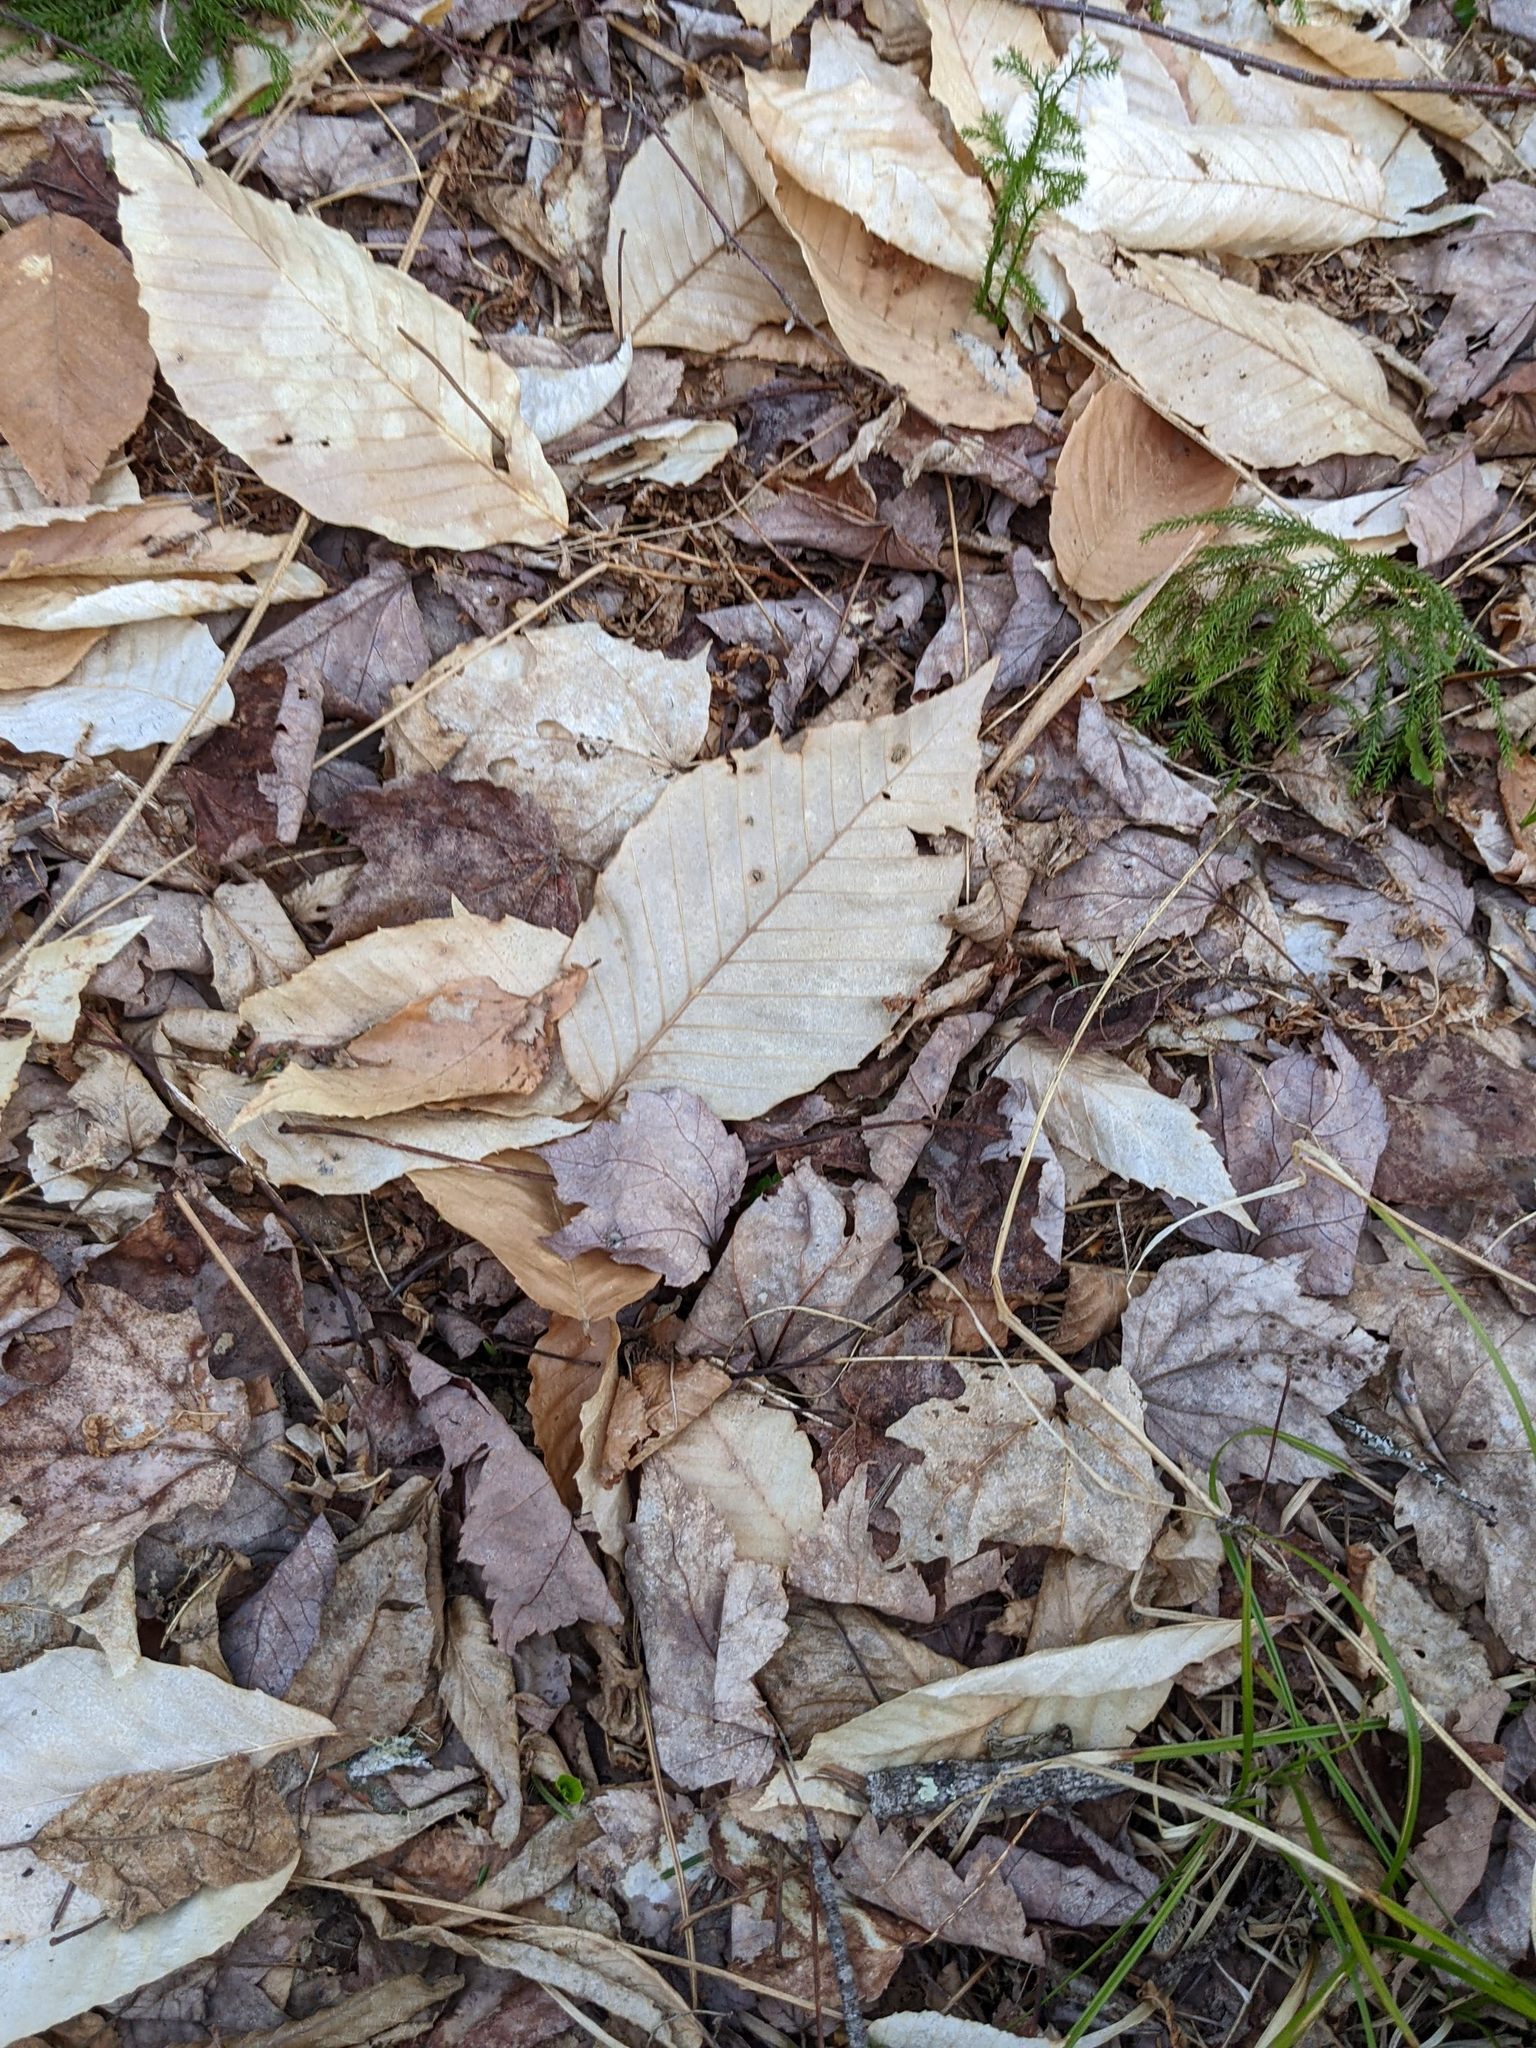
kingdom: Plantae
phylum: Tracheophyta
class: Magnoliopsida
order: Fagales
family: Fagaceae
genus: Fagus
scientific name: Fagus grandifolia
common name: American beech
